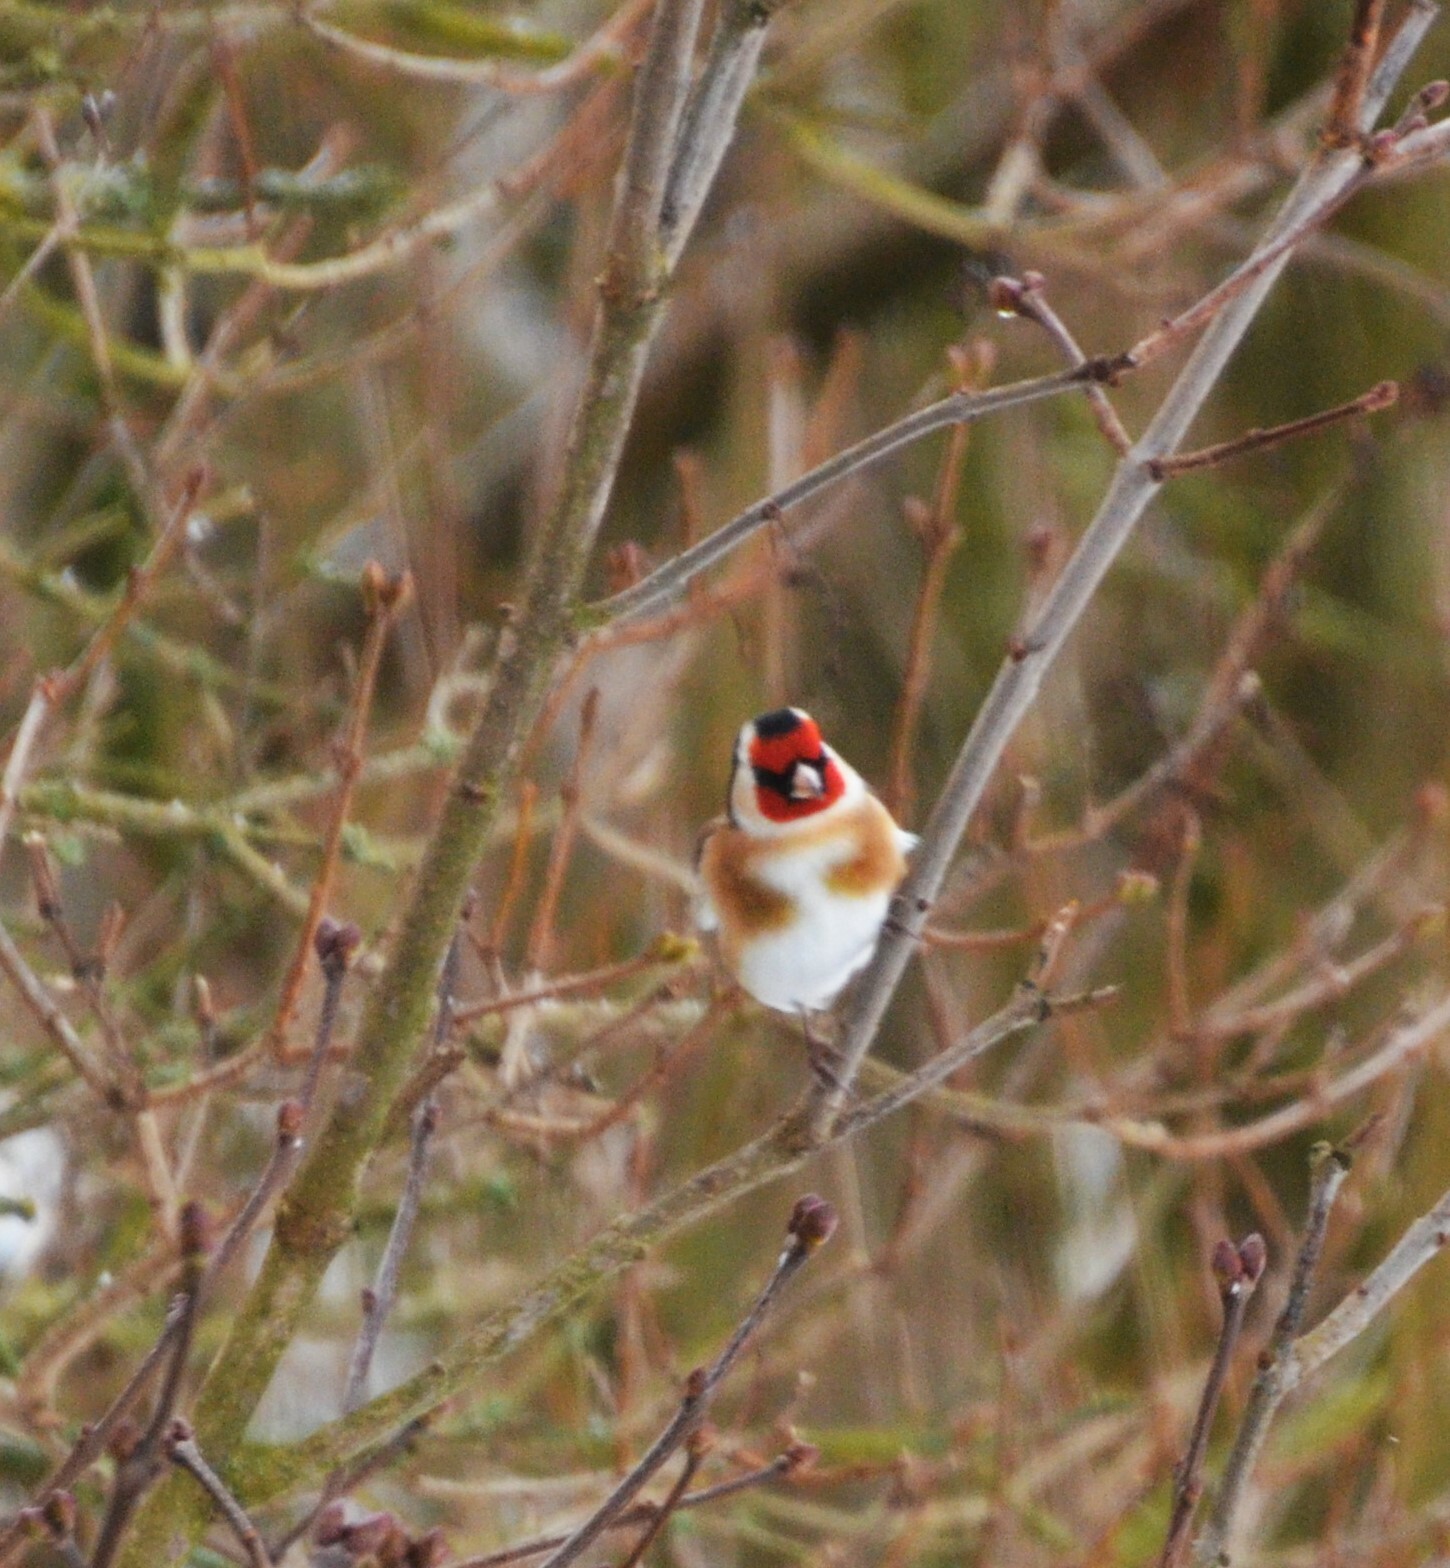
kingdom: Animalia
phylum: Chordata
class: Aves
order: Passeriformes
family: Fringillidae
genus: Carduelis
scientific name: Carduelis carduelis
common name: European goldfinch
